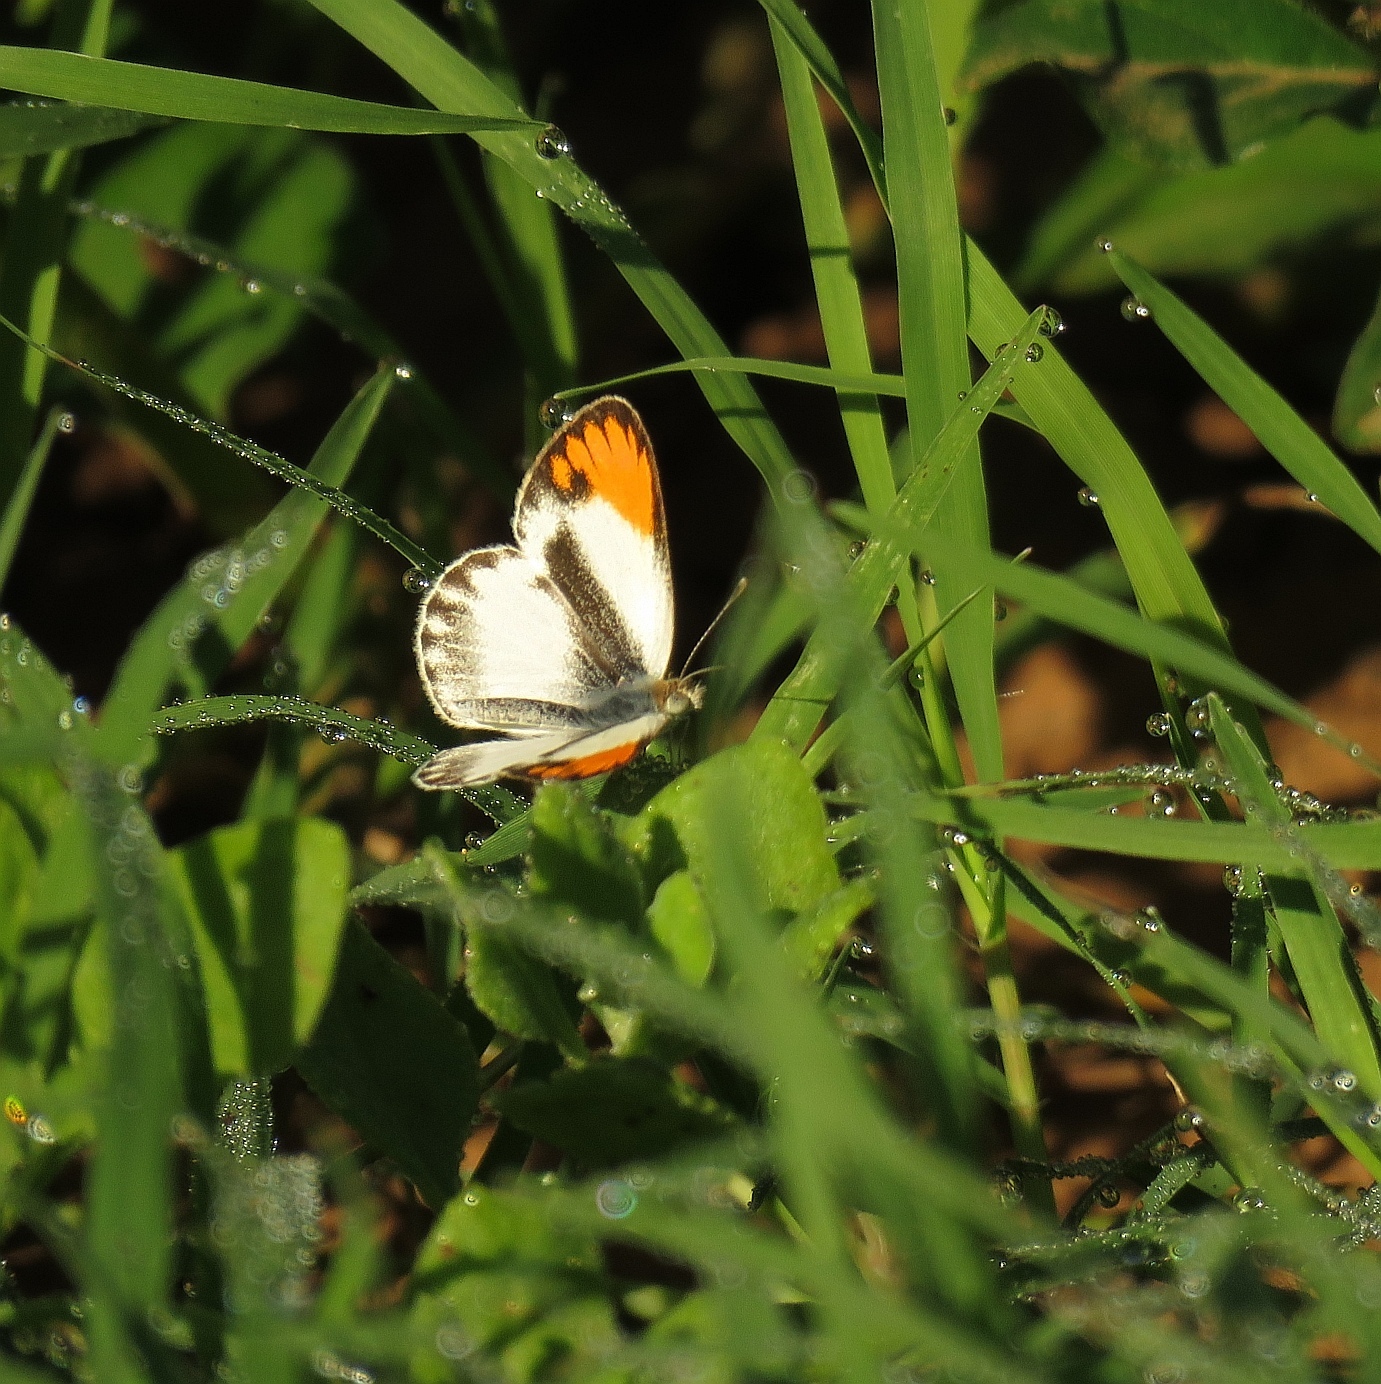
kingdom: Animalia
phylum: Arthropoda
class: Insecta
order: Lepidoptera
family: Pieridae
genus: Colotis
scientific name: Colotis evagore
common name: Desert orange-tip
